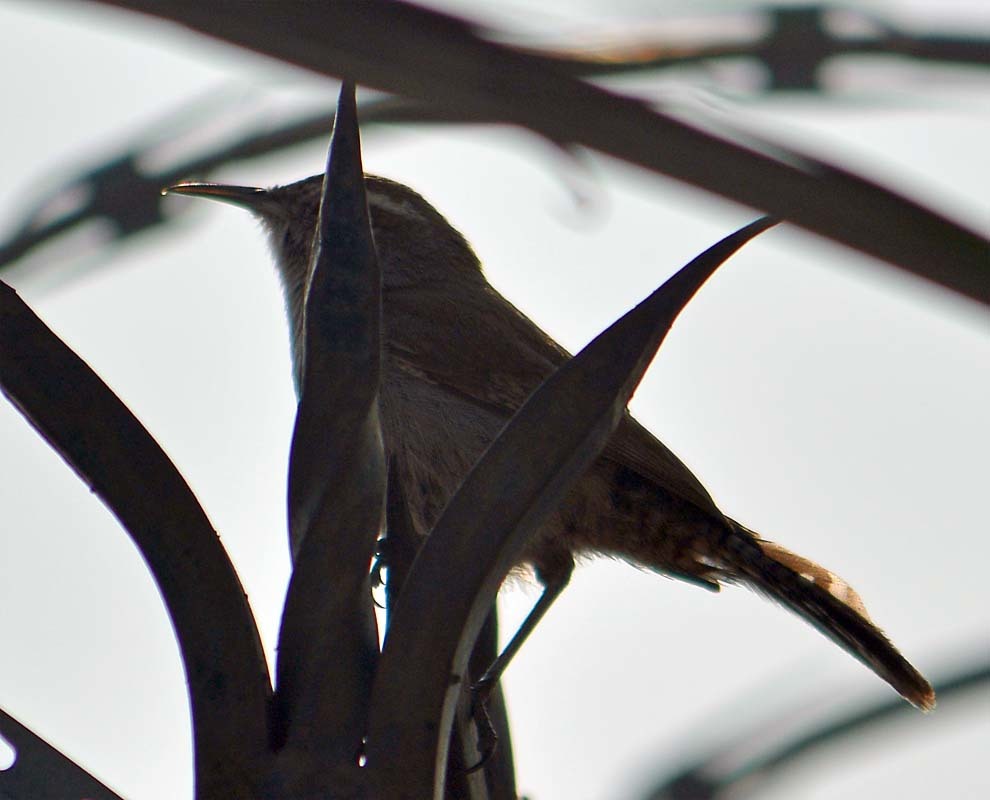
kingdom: Animalia
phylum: Chordata
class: Aves
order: Passeriformes
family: Troglodytidae
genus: Thryomanes
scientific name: Thryomanes bewickii
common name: Bewick's wren
